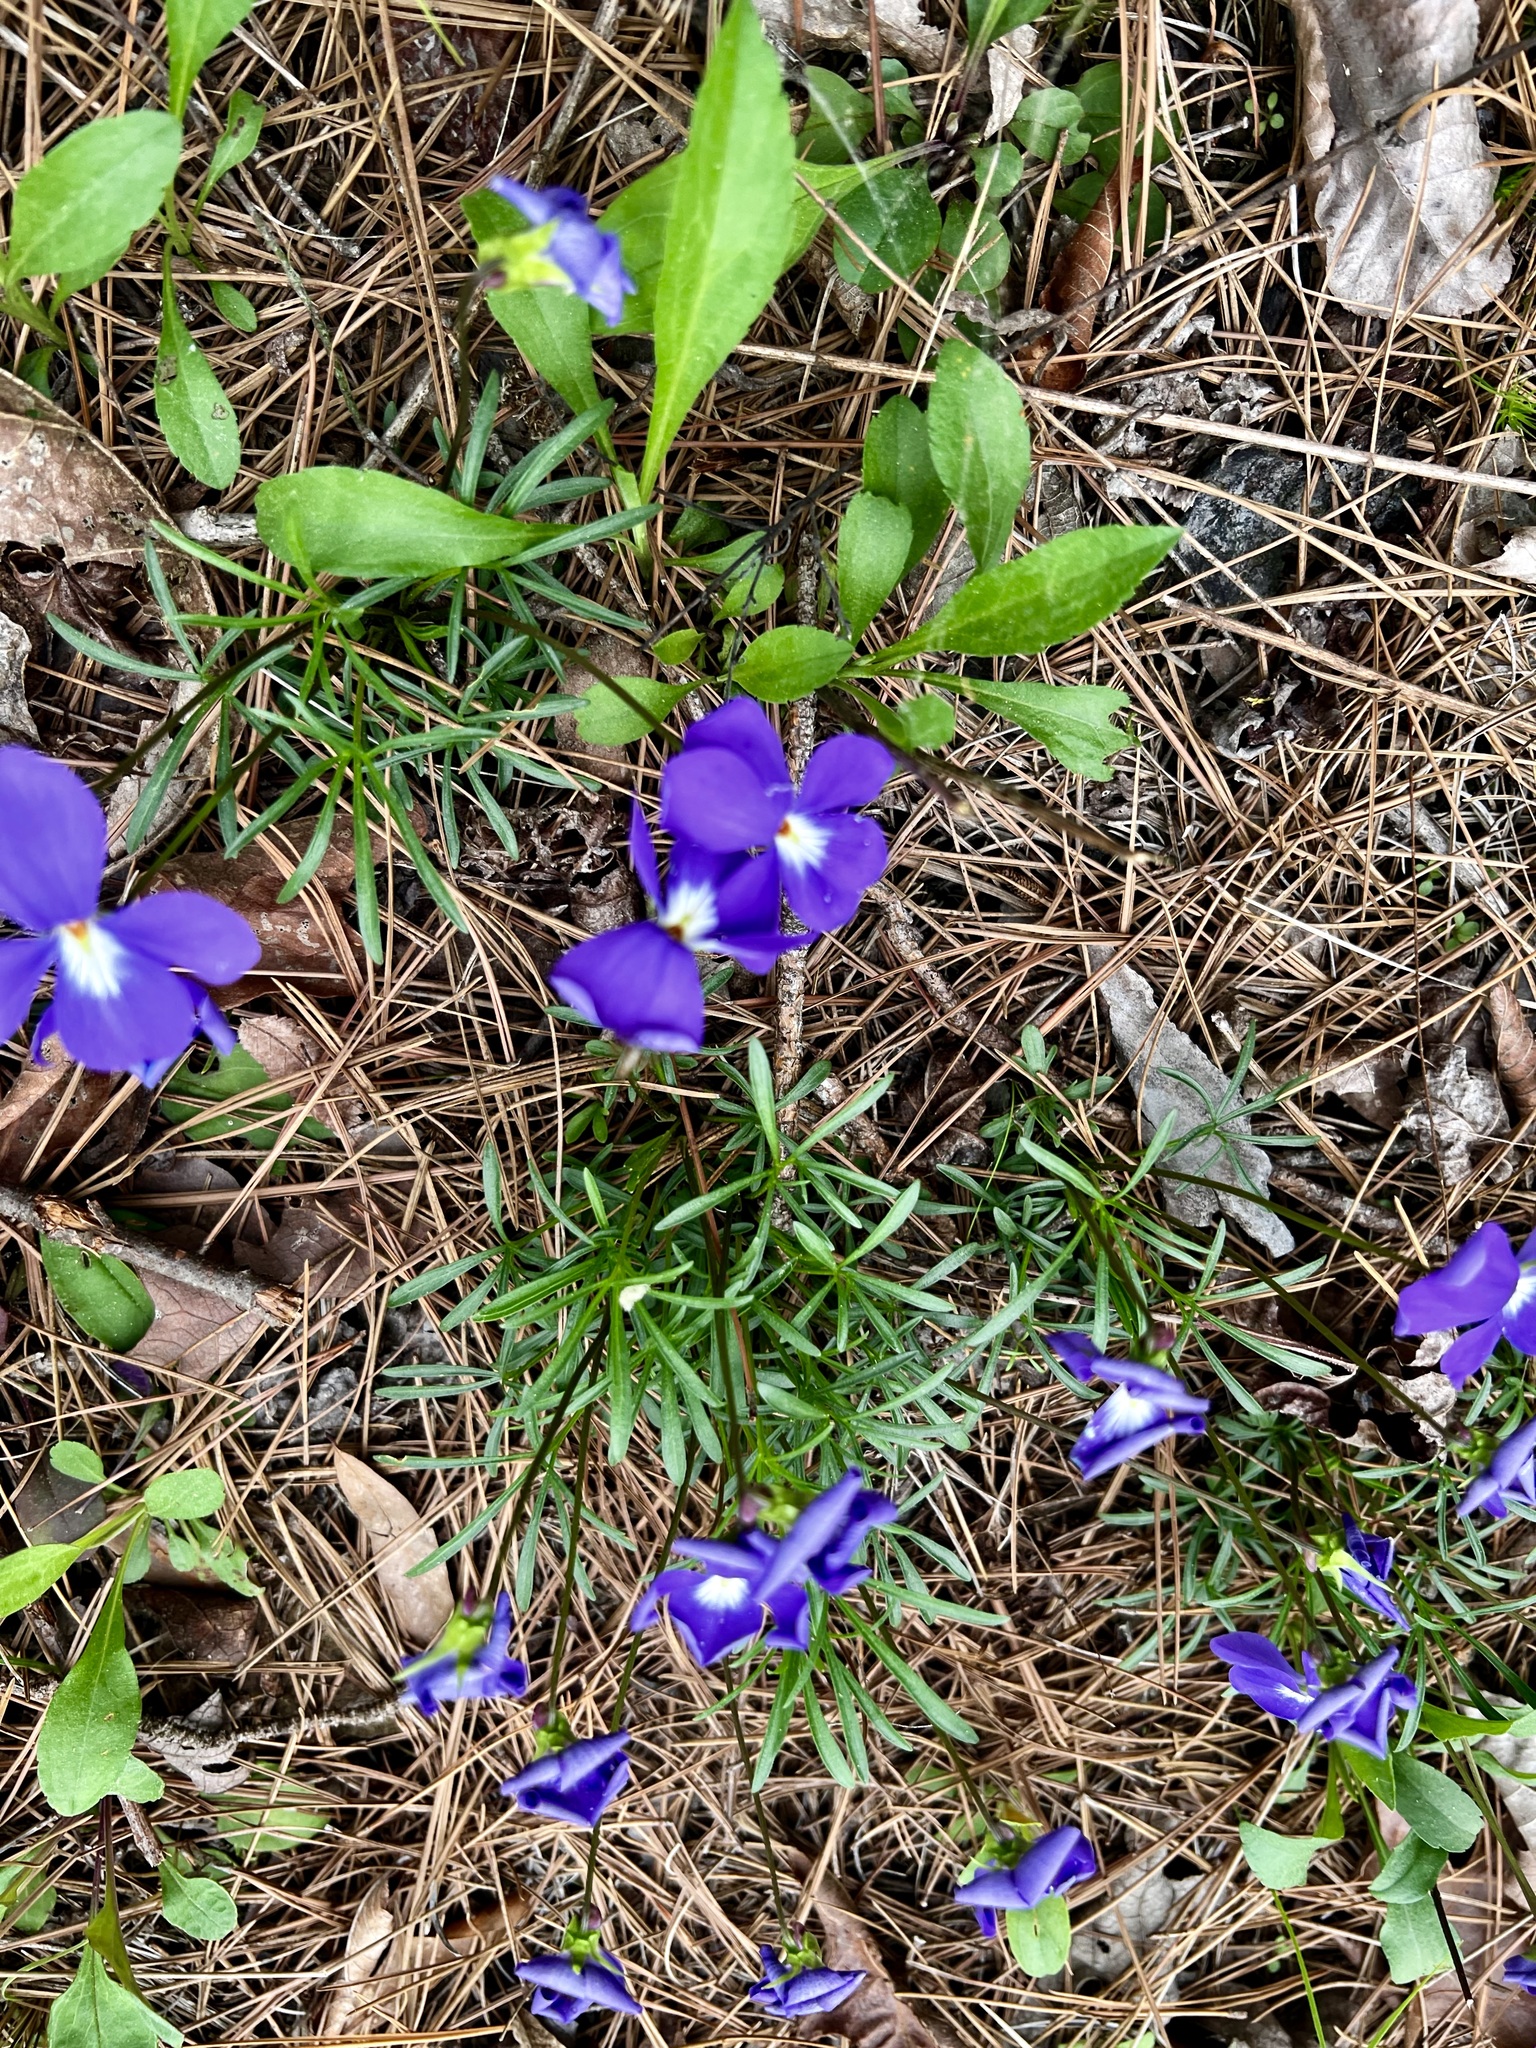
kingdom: Plantae
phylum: Tracheophyta
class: Magnoliopsida
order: Malpighiales
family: Violaceae
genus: Viola
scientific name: Viola pedata
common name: Pansy violet
